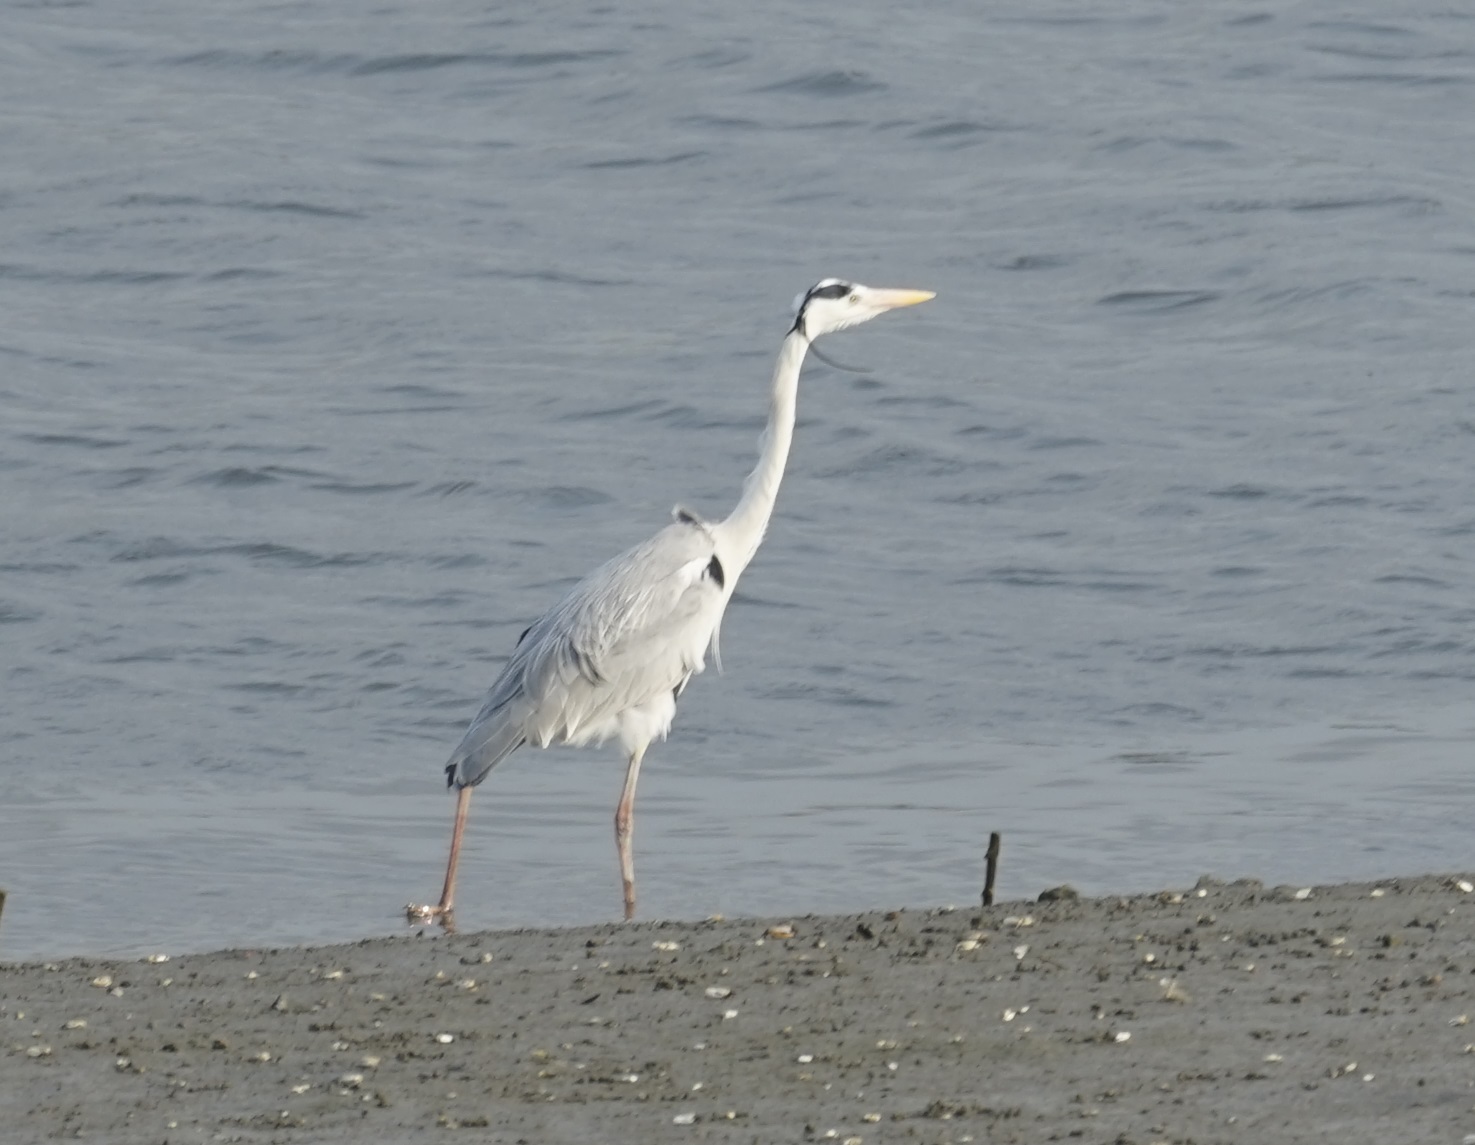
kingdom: Animalia
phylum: Chordata
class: Aves
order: Pelecaniformes
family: Ardeidae
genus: Ardea
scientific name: Ardea cinerea
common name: Grey heron
